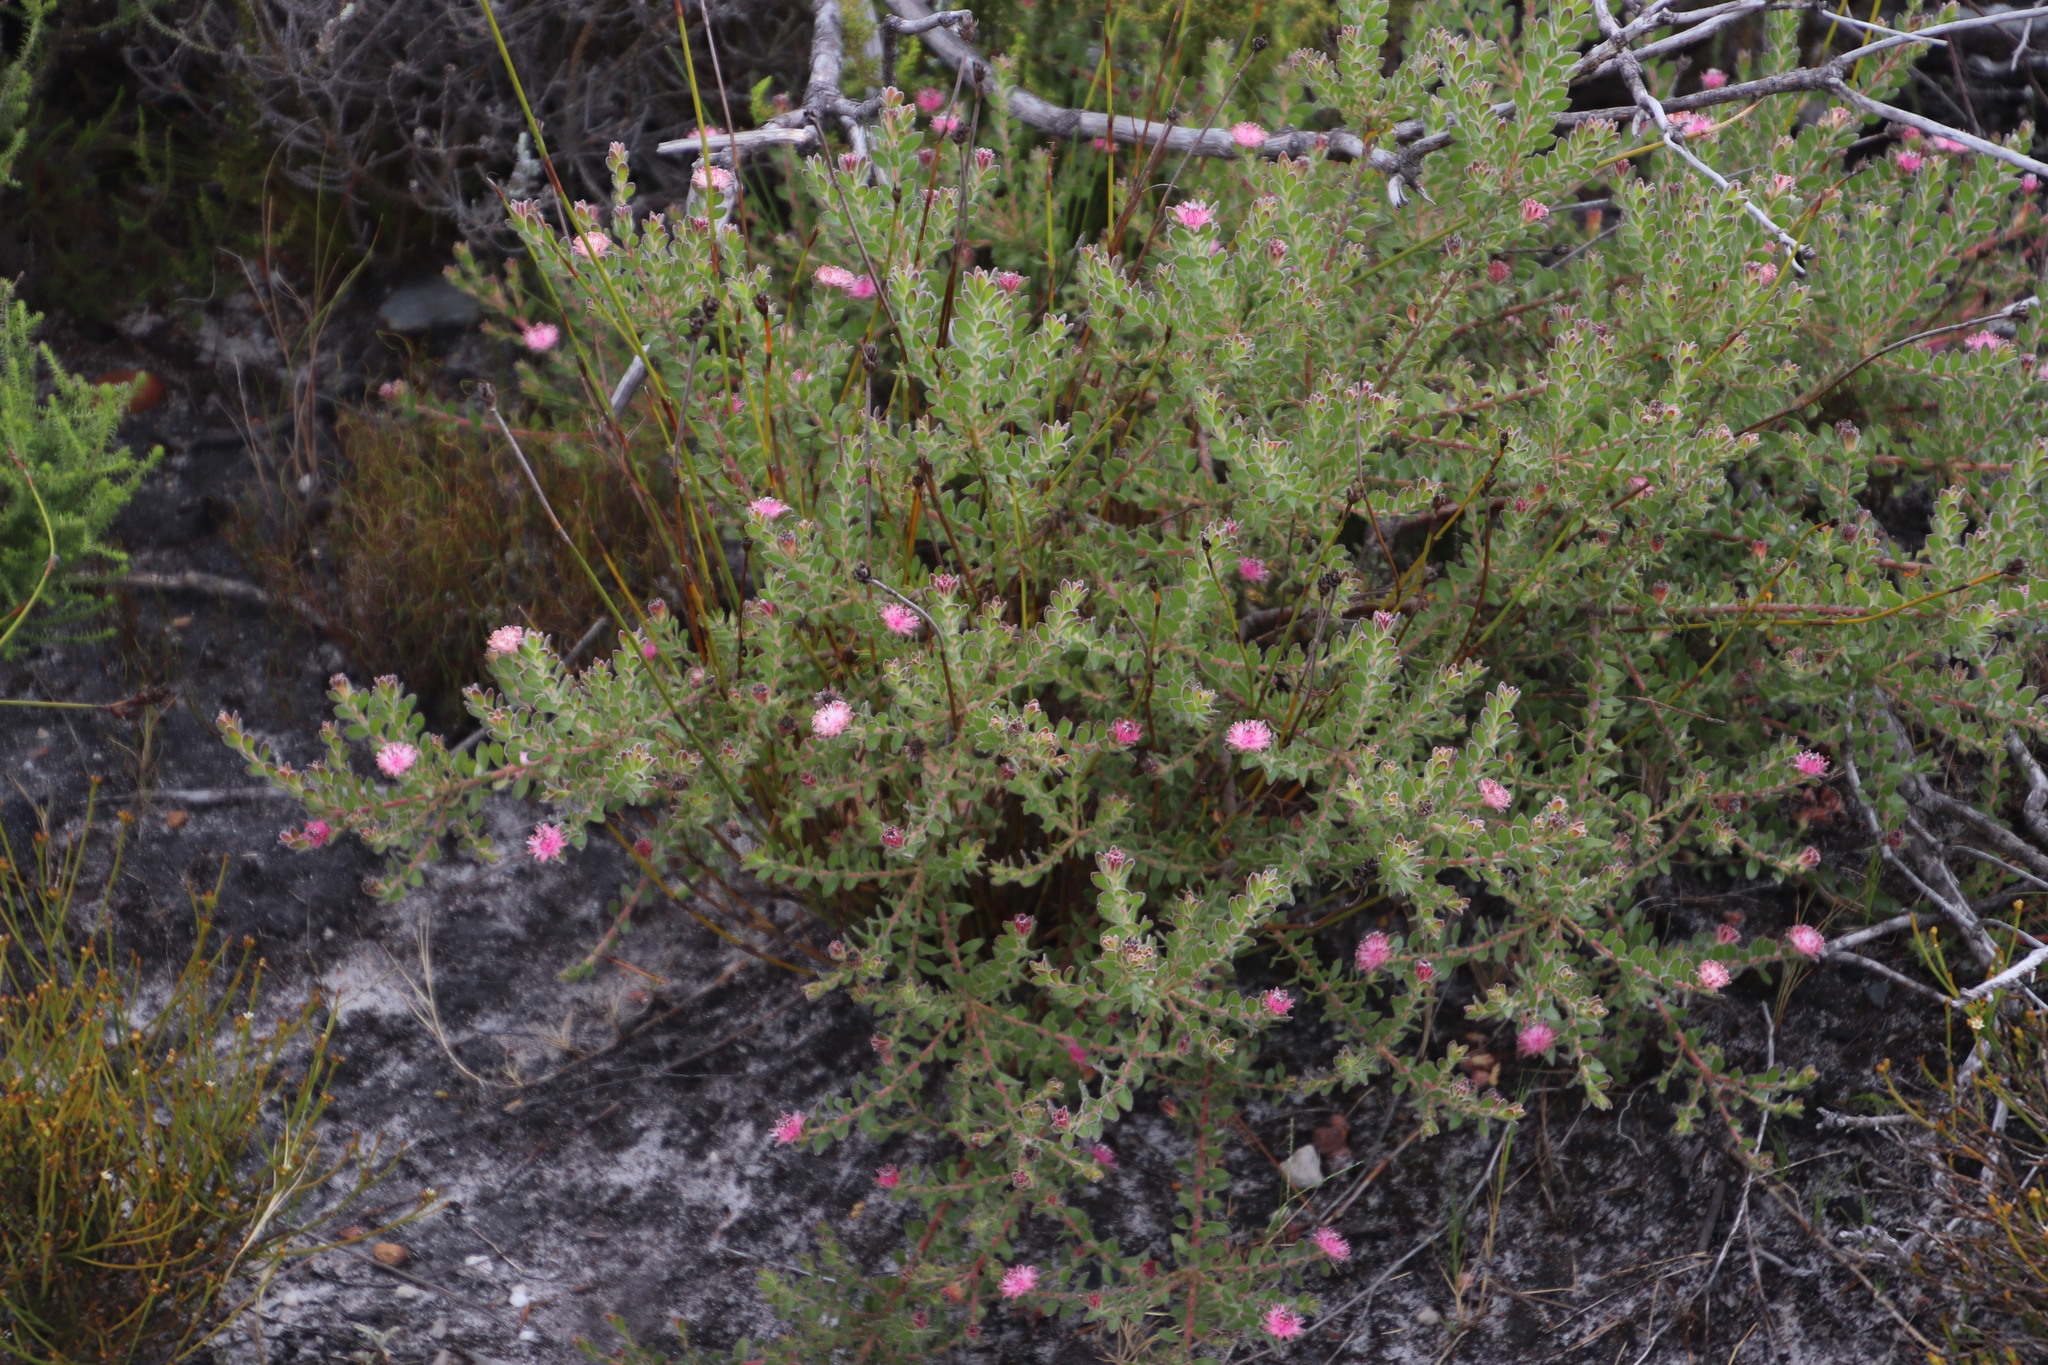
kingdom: Plantae
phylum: Tracheophyta
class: Magnoliopsida
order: Proteales
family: Proteaceae
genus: Diastella
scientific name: Diastella divaricata
